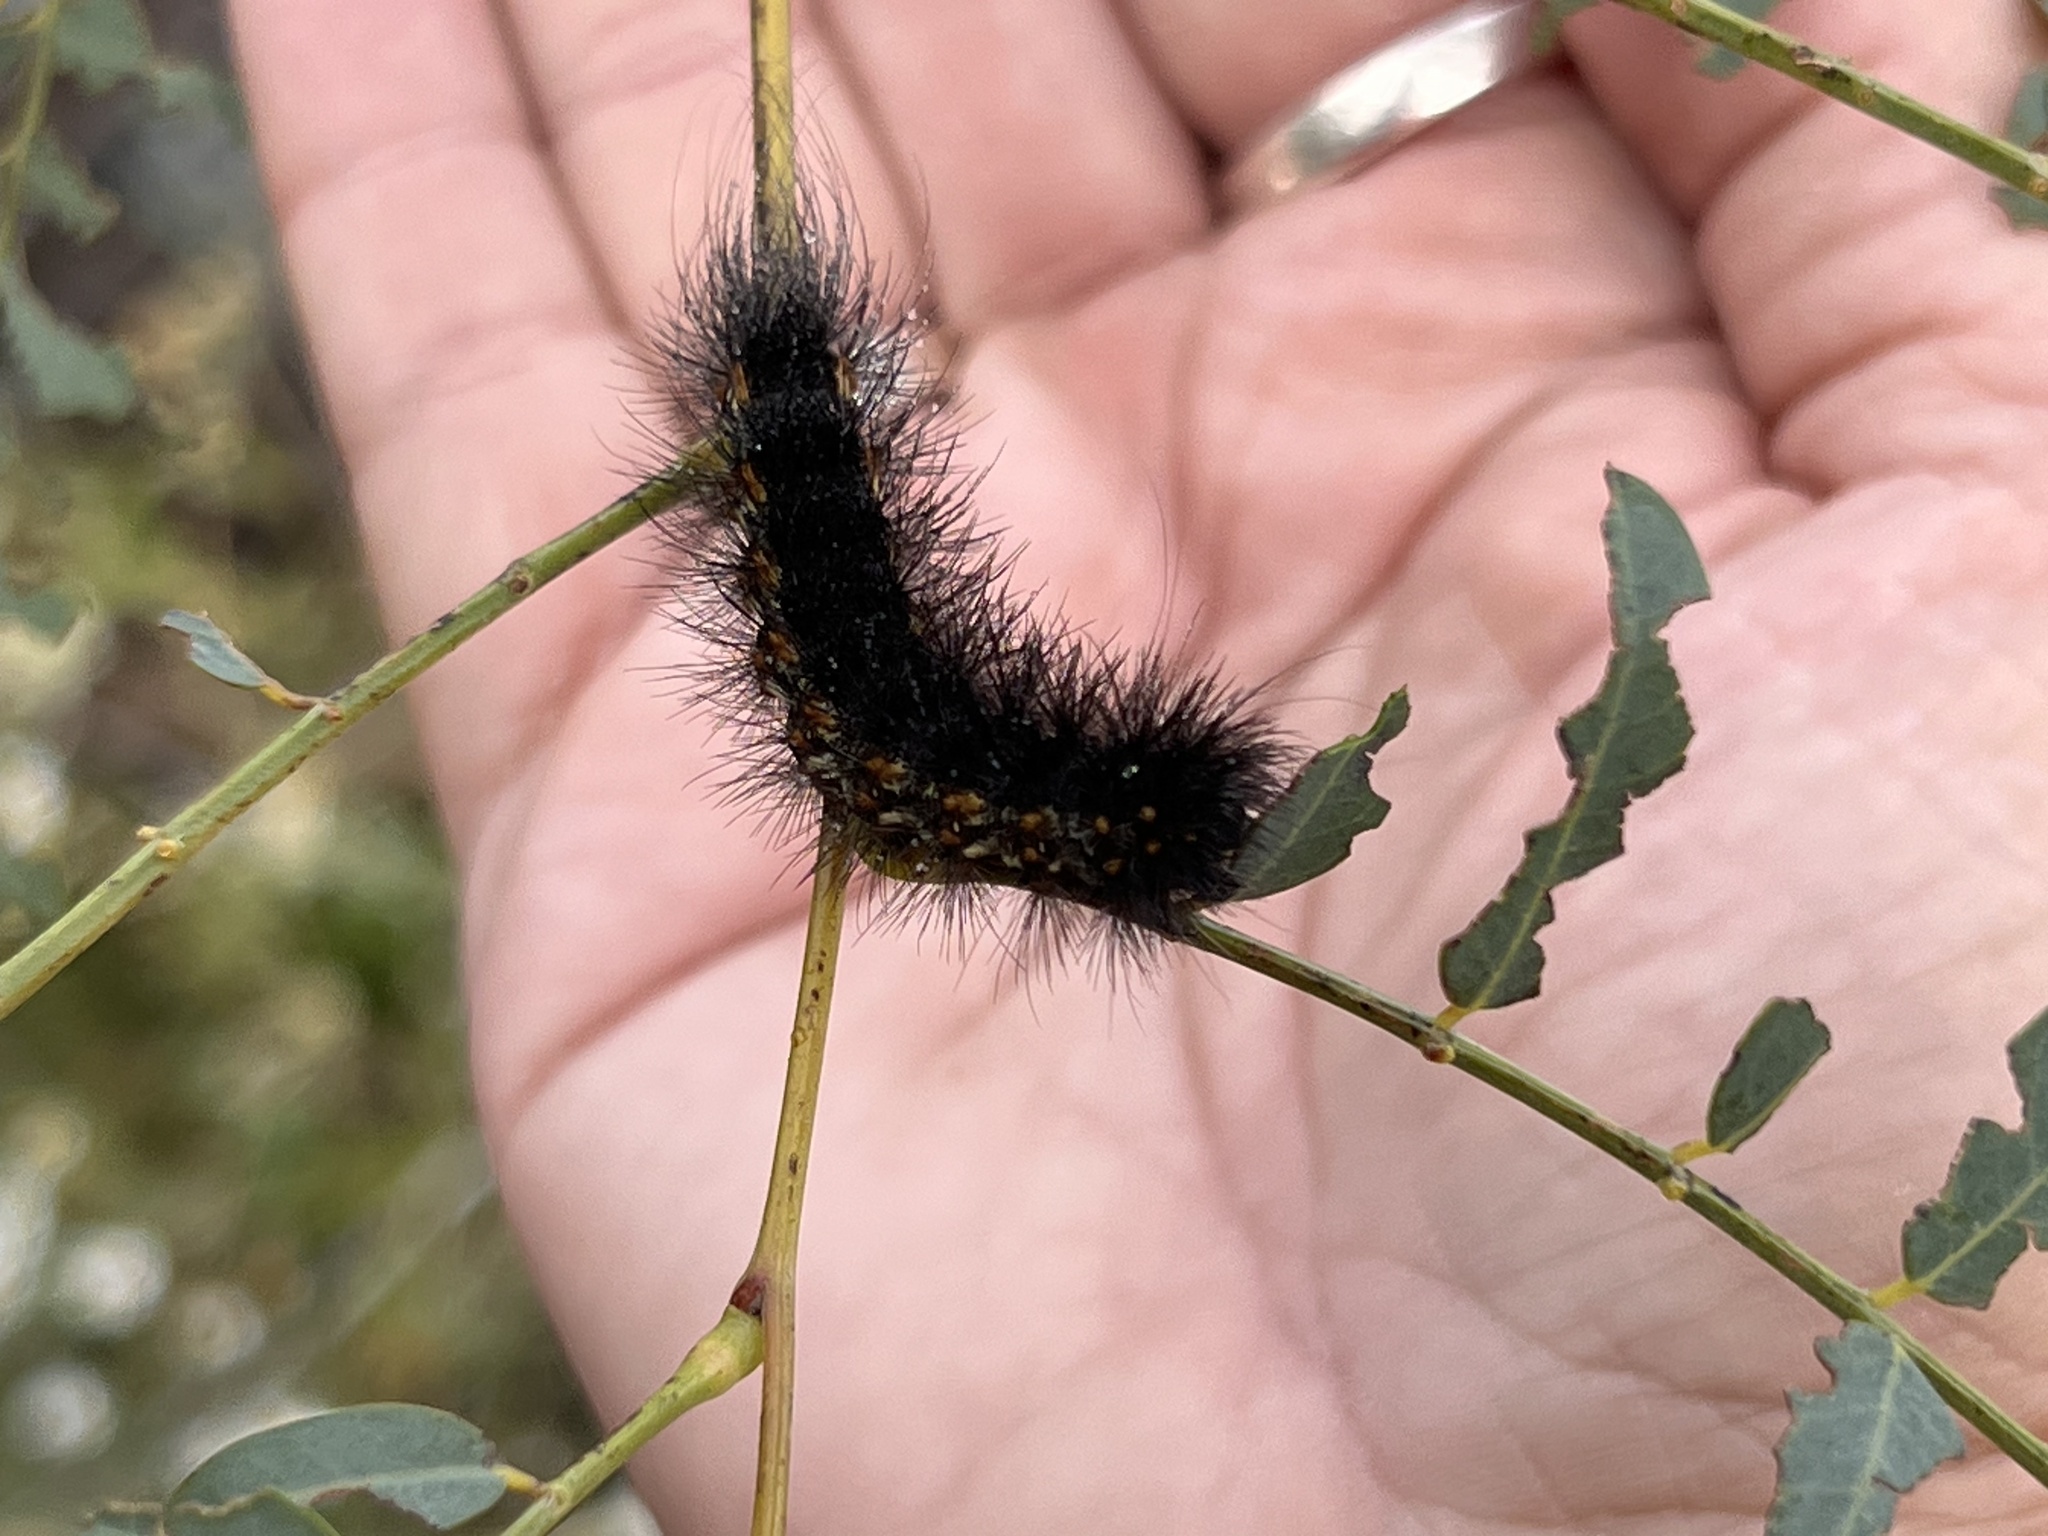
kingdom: Animalia
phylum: Arthropoda
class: Insecta
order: Lepidoptera
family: Erebidae
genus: Estigmene
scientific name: Estigmene acrea
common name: Salt marsh moth
